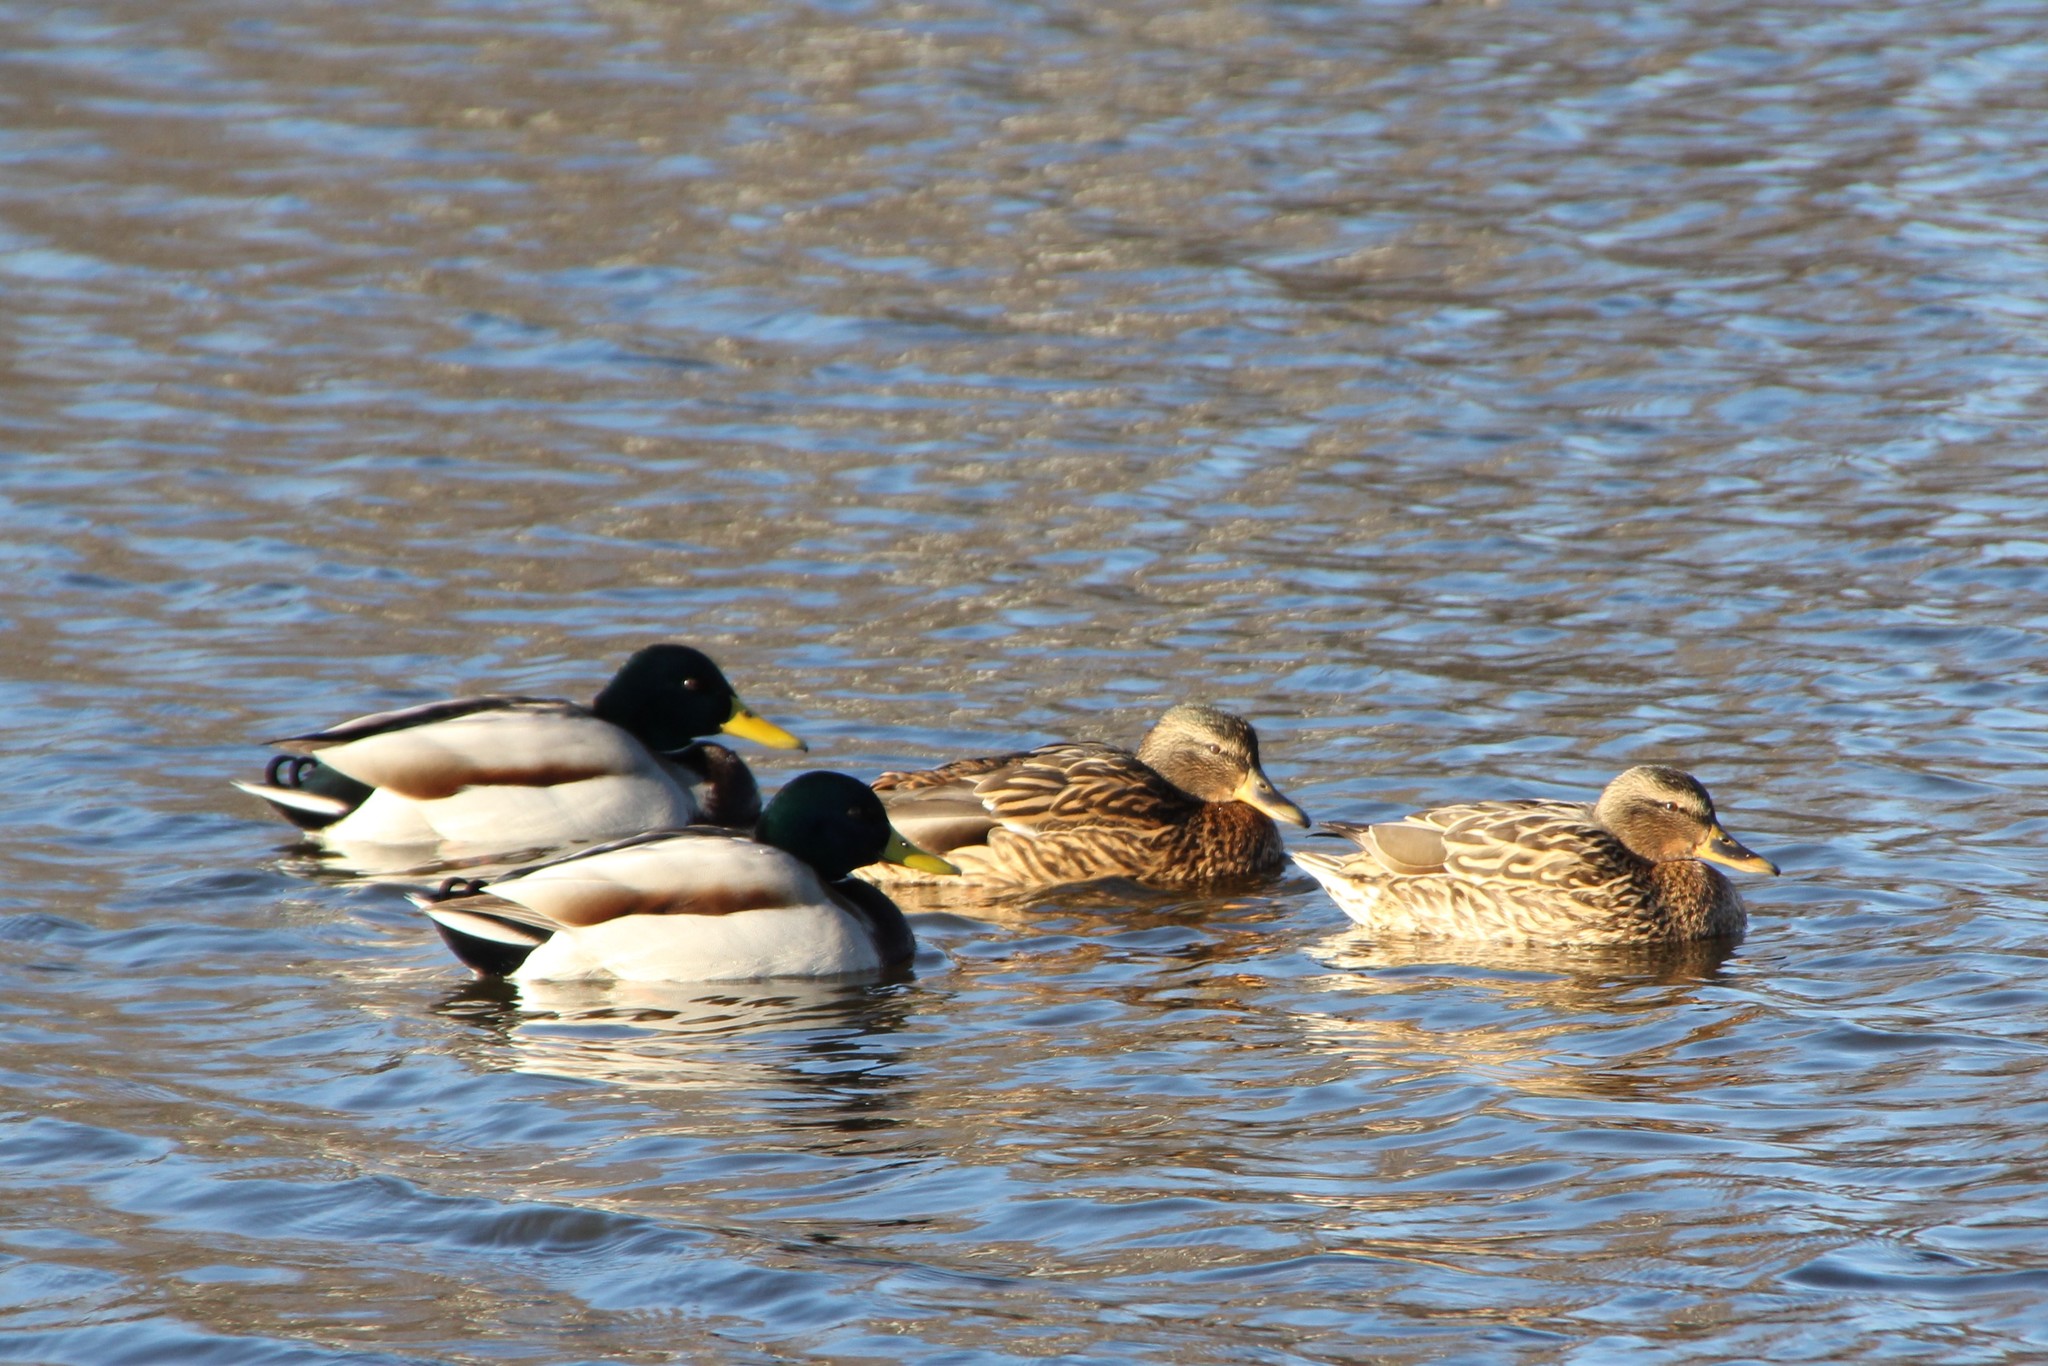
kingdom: Animalia
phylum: Chordata
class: Aves
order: Anseriformes
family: Anatidae
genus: Anas
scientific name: Anas platyrhynchos
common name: Mallard
